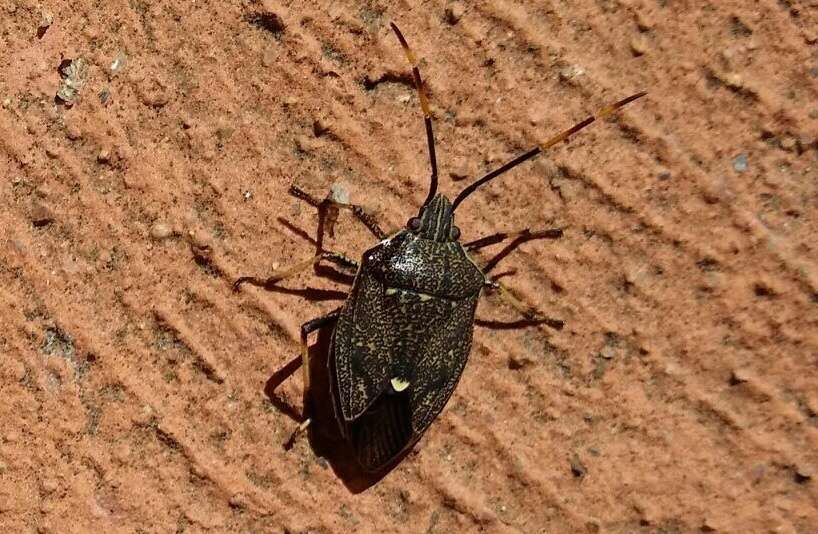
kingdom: Animalia
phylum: Arthropoda
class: Insecta
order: Hemiptera
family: Pentatomidae
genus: Poecilometis
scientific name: Poecilometis
